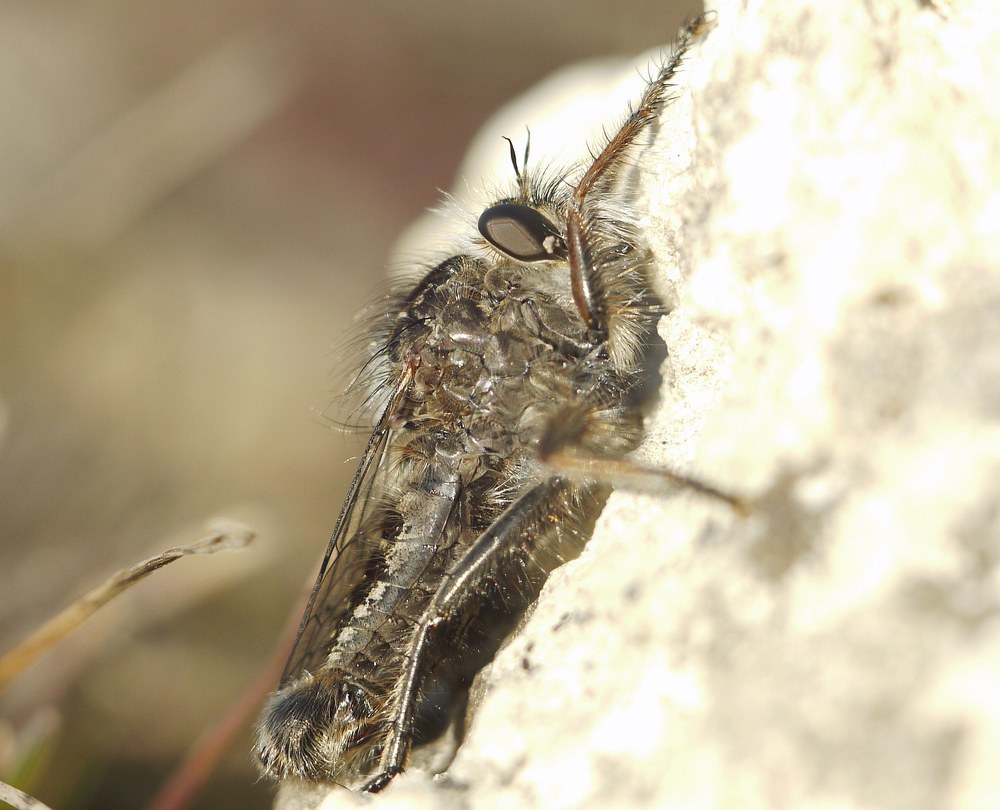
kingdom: Animalia
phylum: Arthropoda
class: Insecta
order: Diptera
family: Asilidae
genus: Erax
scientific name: Erax crassicauda
